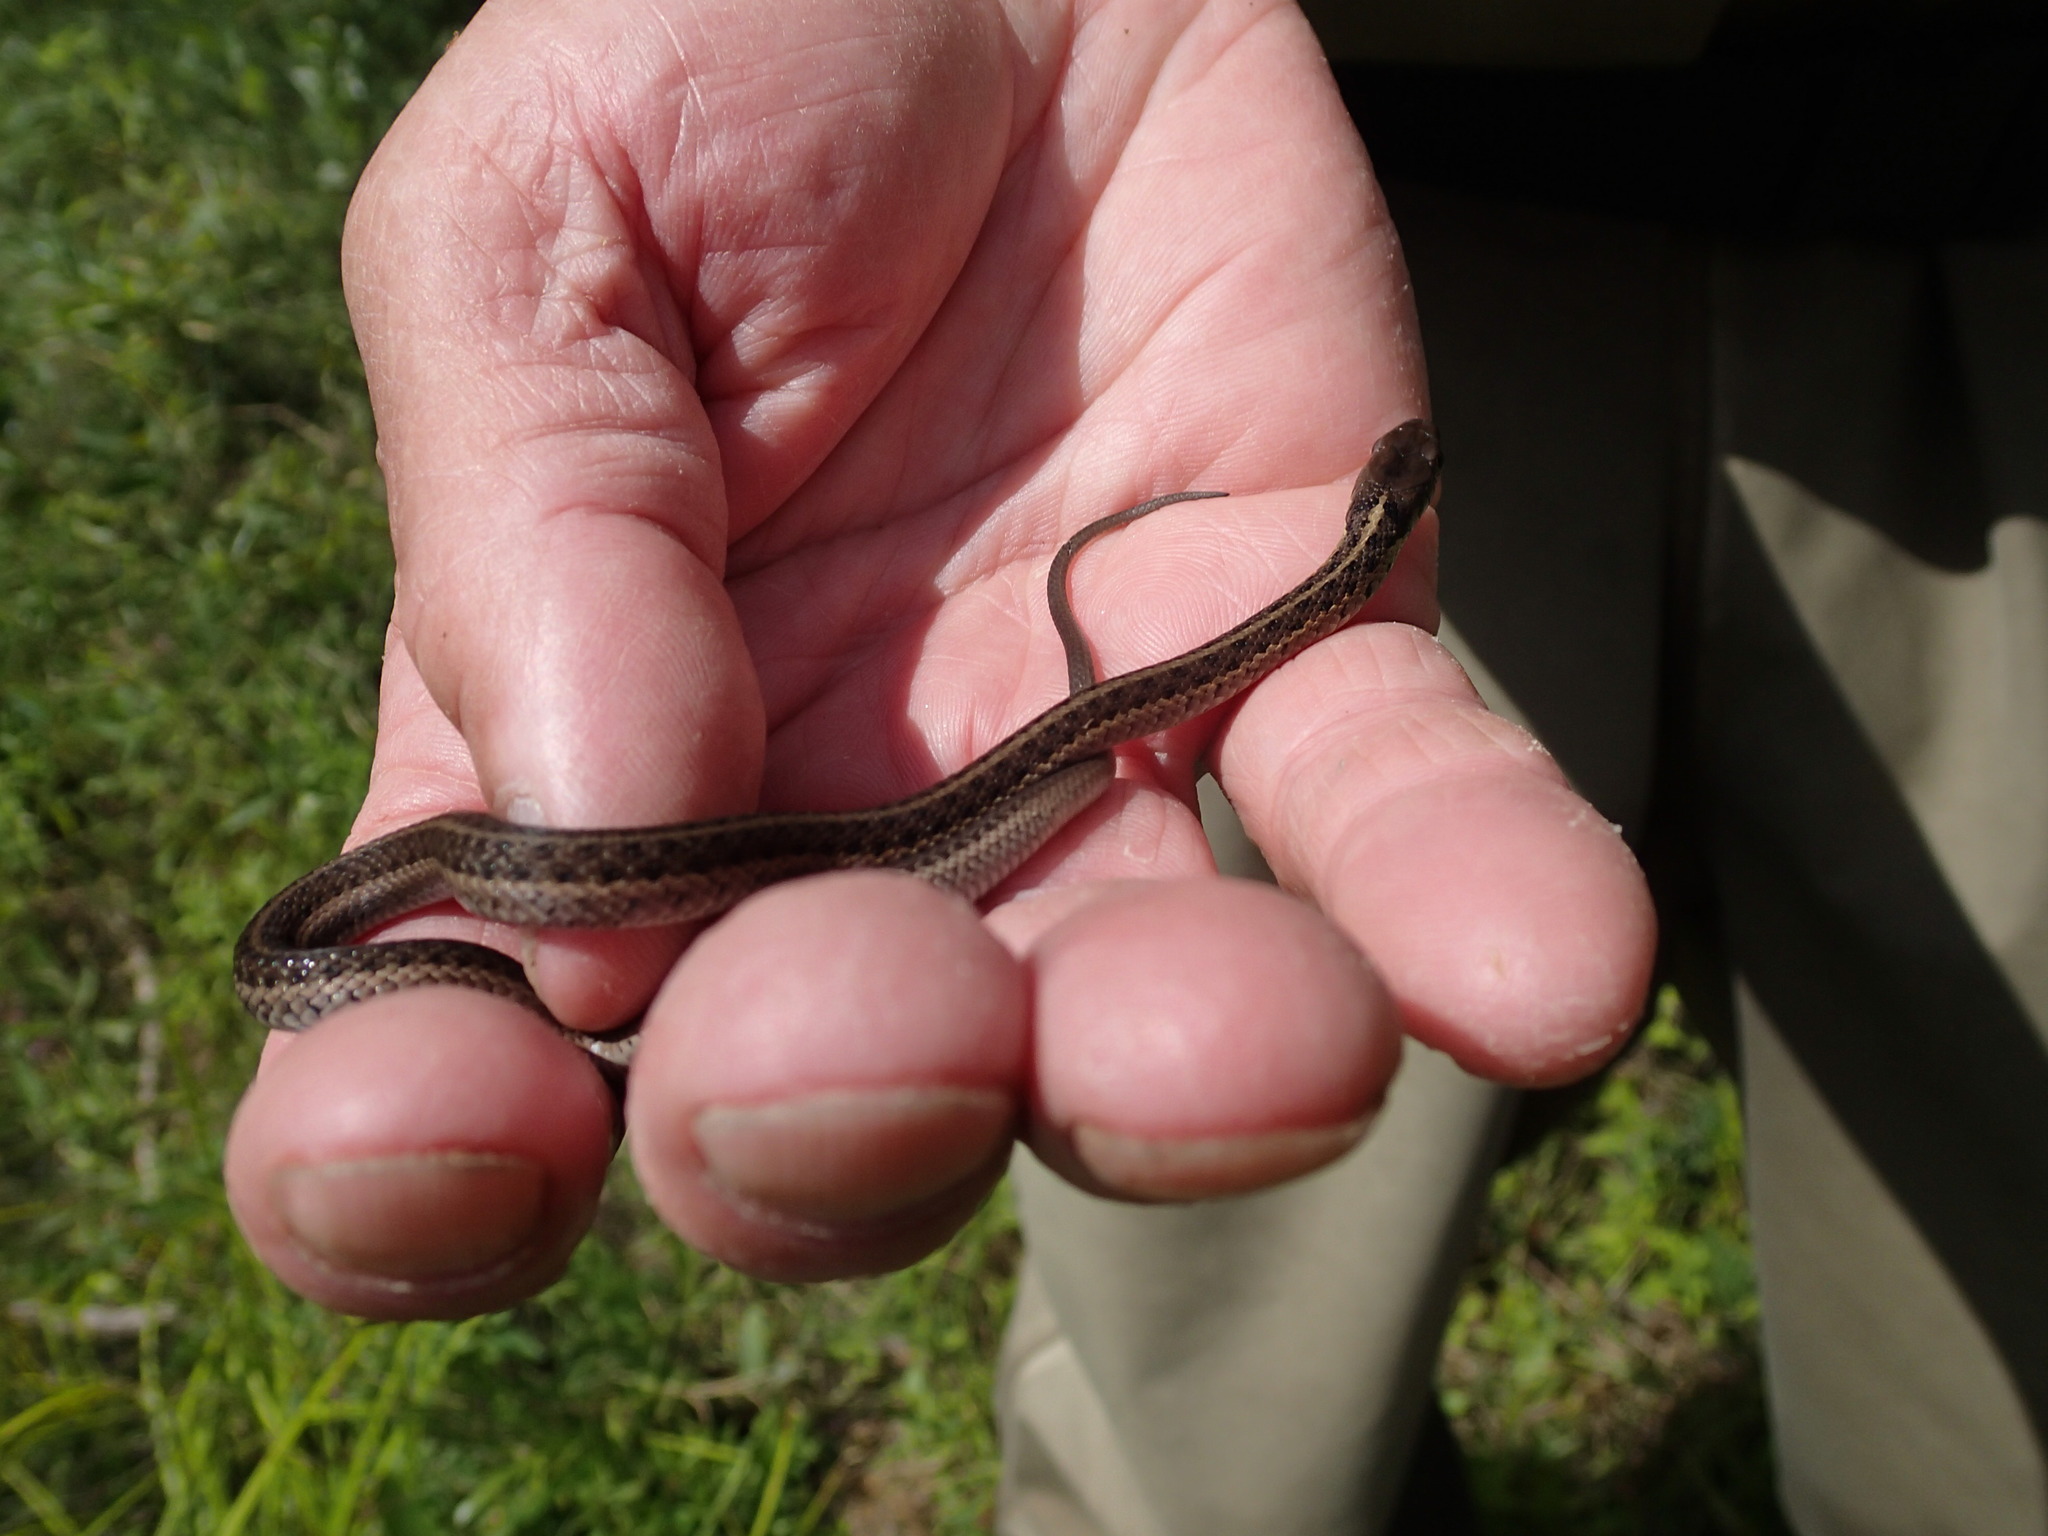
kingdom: Animalia
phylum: Chordata
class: Squamata
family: Colubridae
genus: Thamnophis
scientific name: Thamnophis sirtalis
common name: Common garter snake
